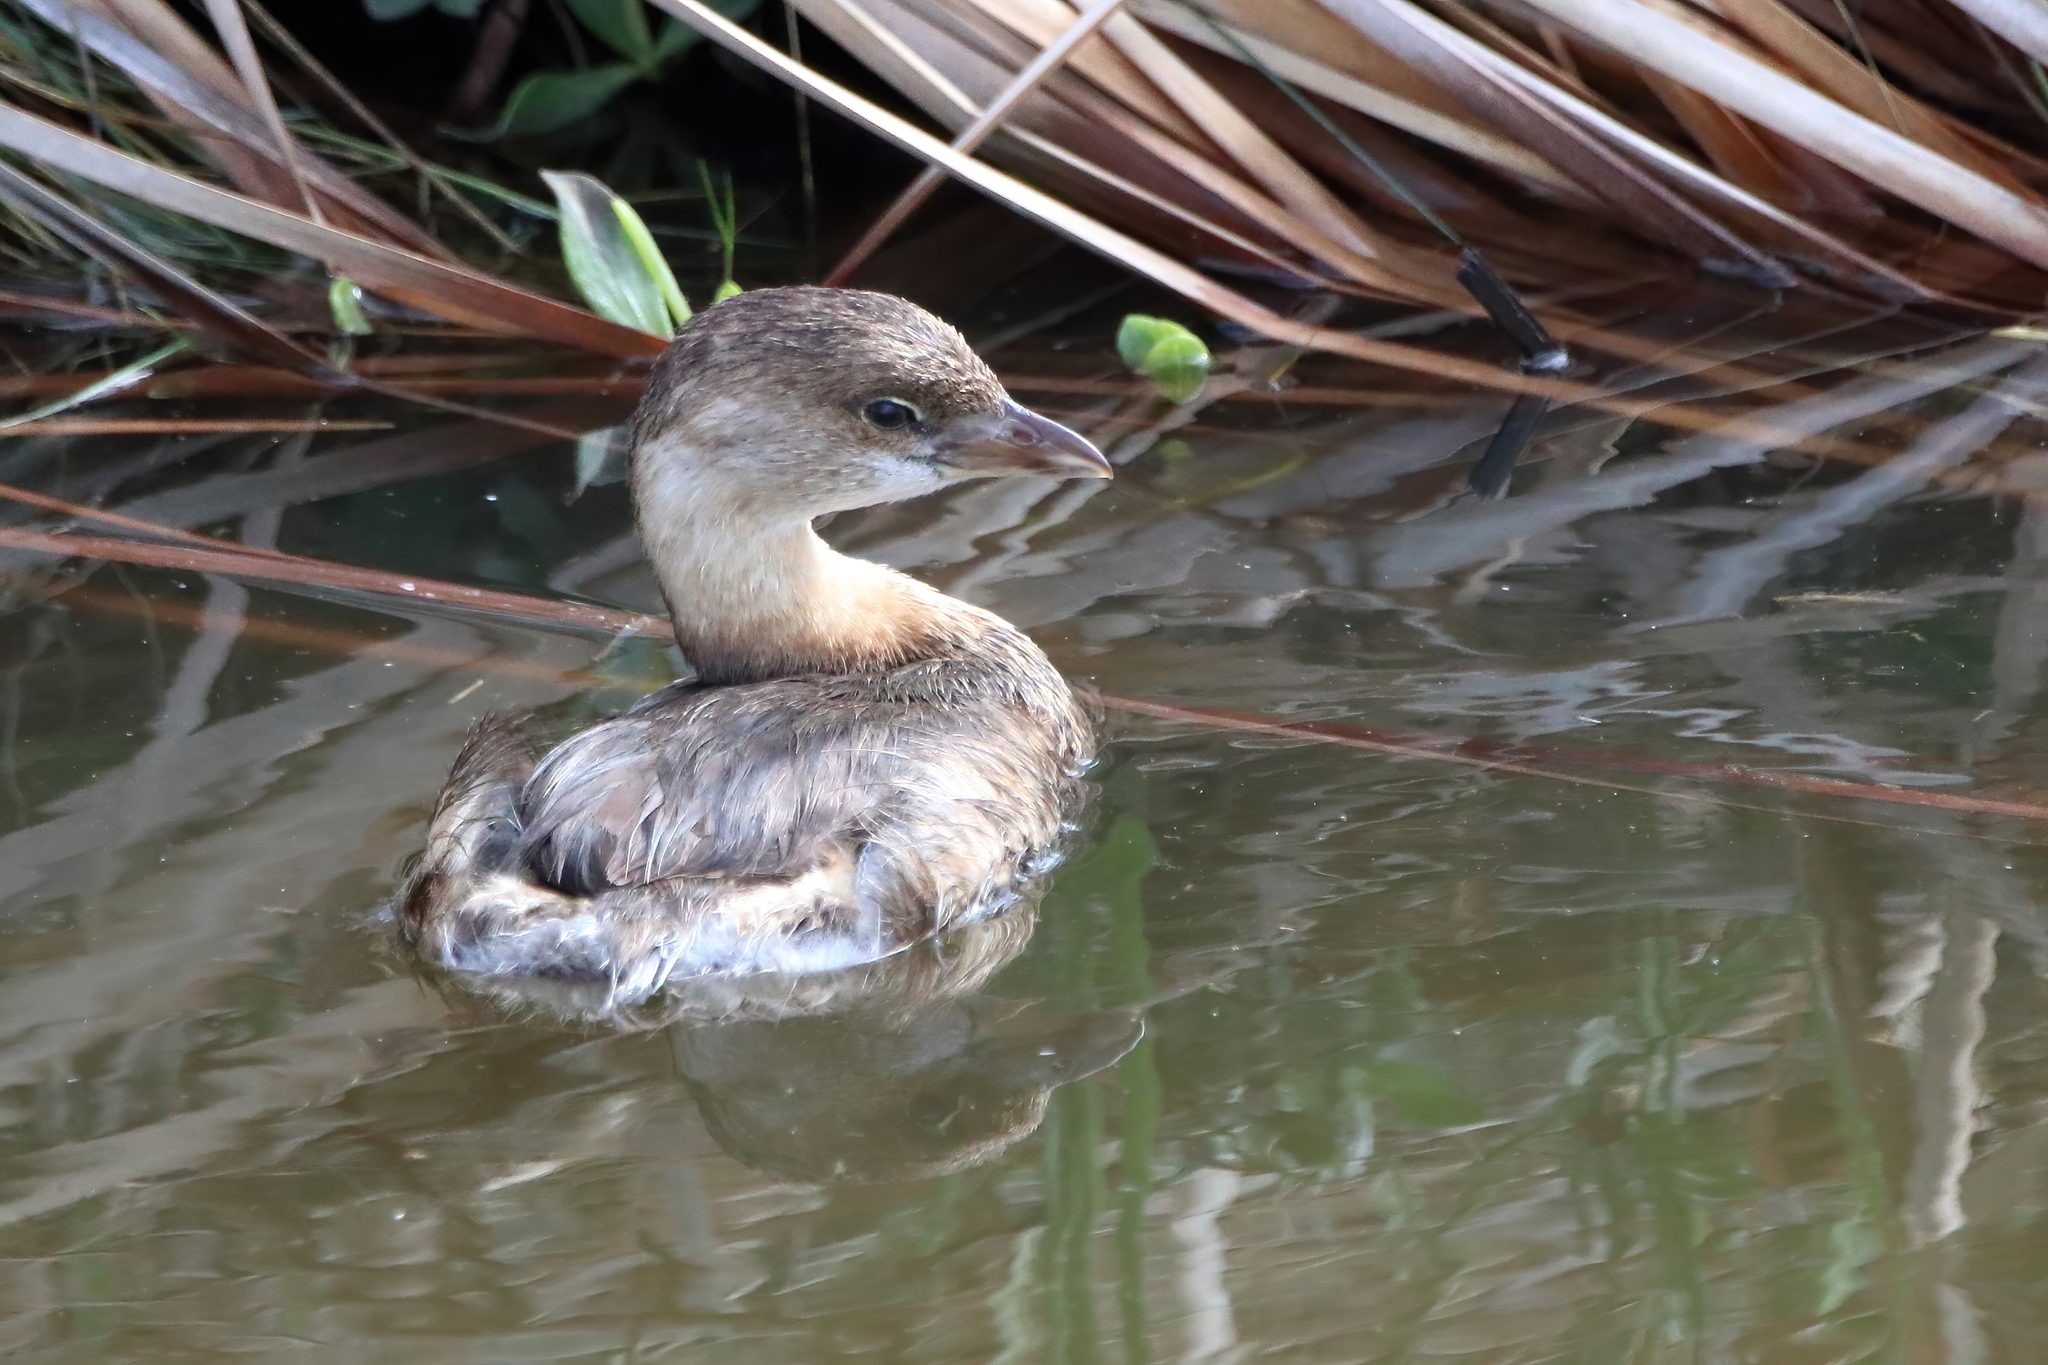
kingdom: Animalia
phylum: Chordata
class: Aves
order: Podicipediformes
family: Podicipedidae
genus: Podilymbus
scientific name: Podilymbus podiceps
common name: Pied-billed grebe
